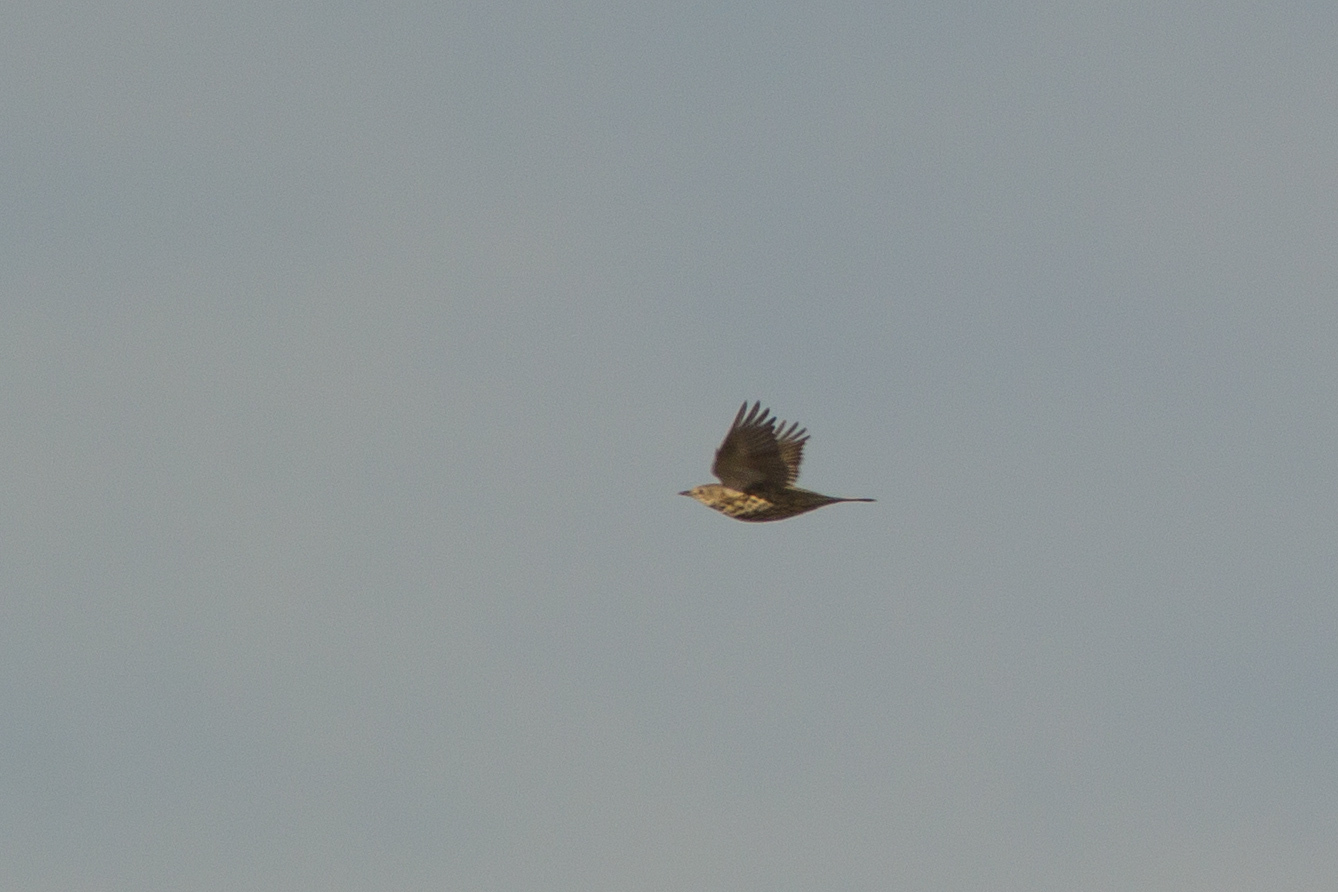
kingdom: Animalia
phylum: Chordata
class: Aves
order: Passeriformes
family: Turdidae
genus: Turdus
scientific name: Turdus viscivorus
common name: Mistle thrush
